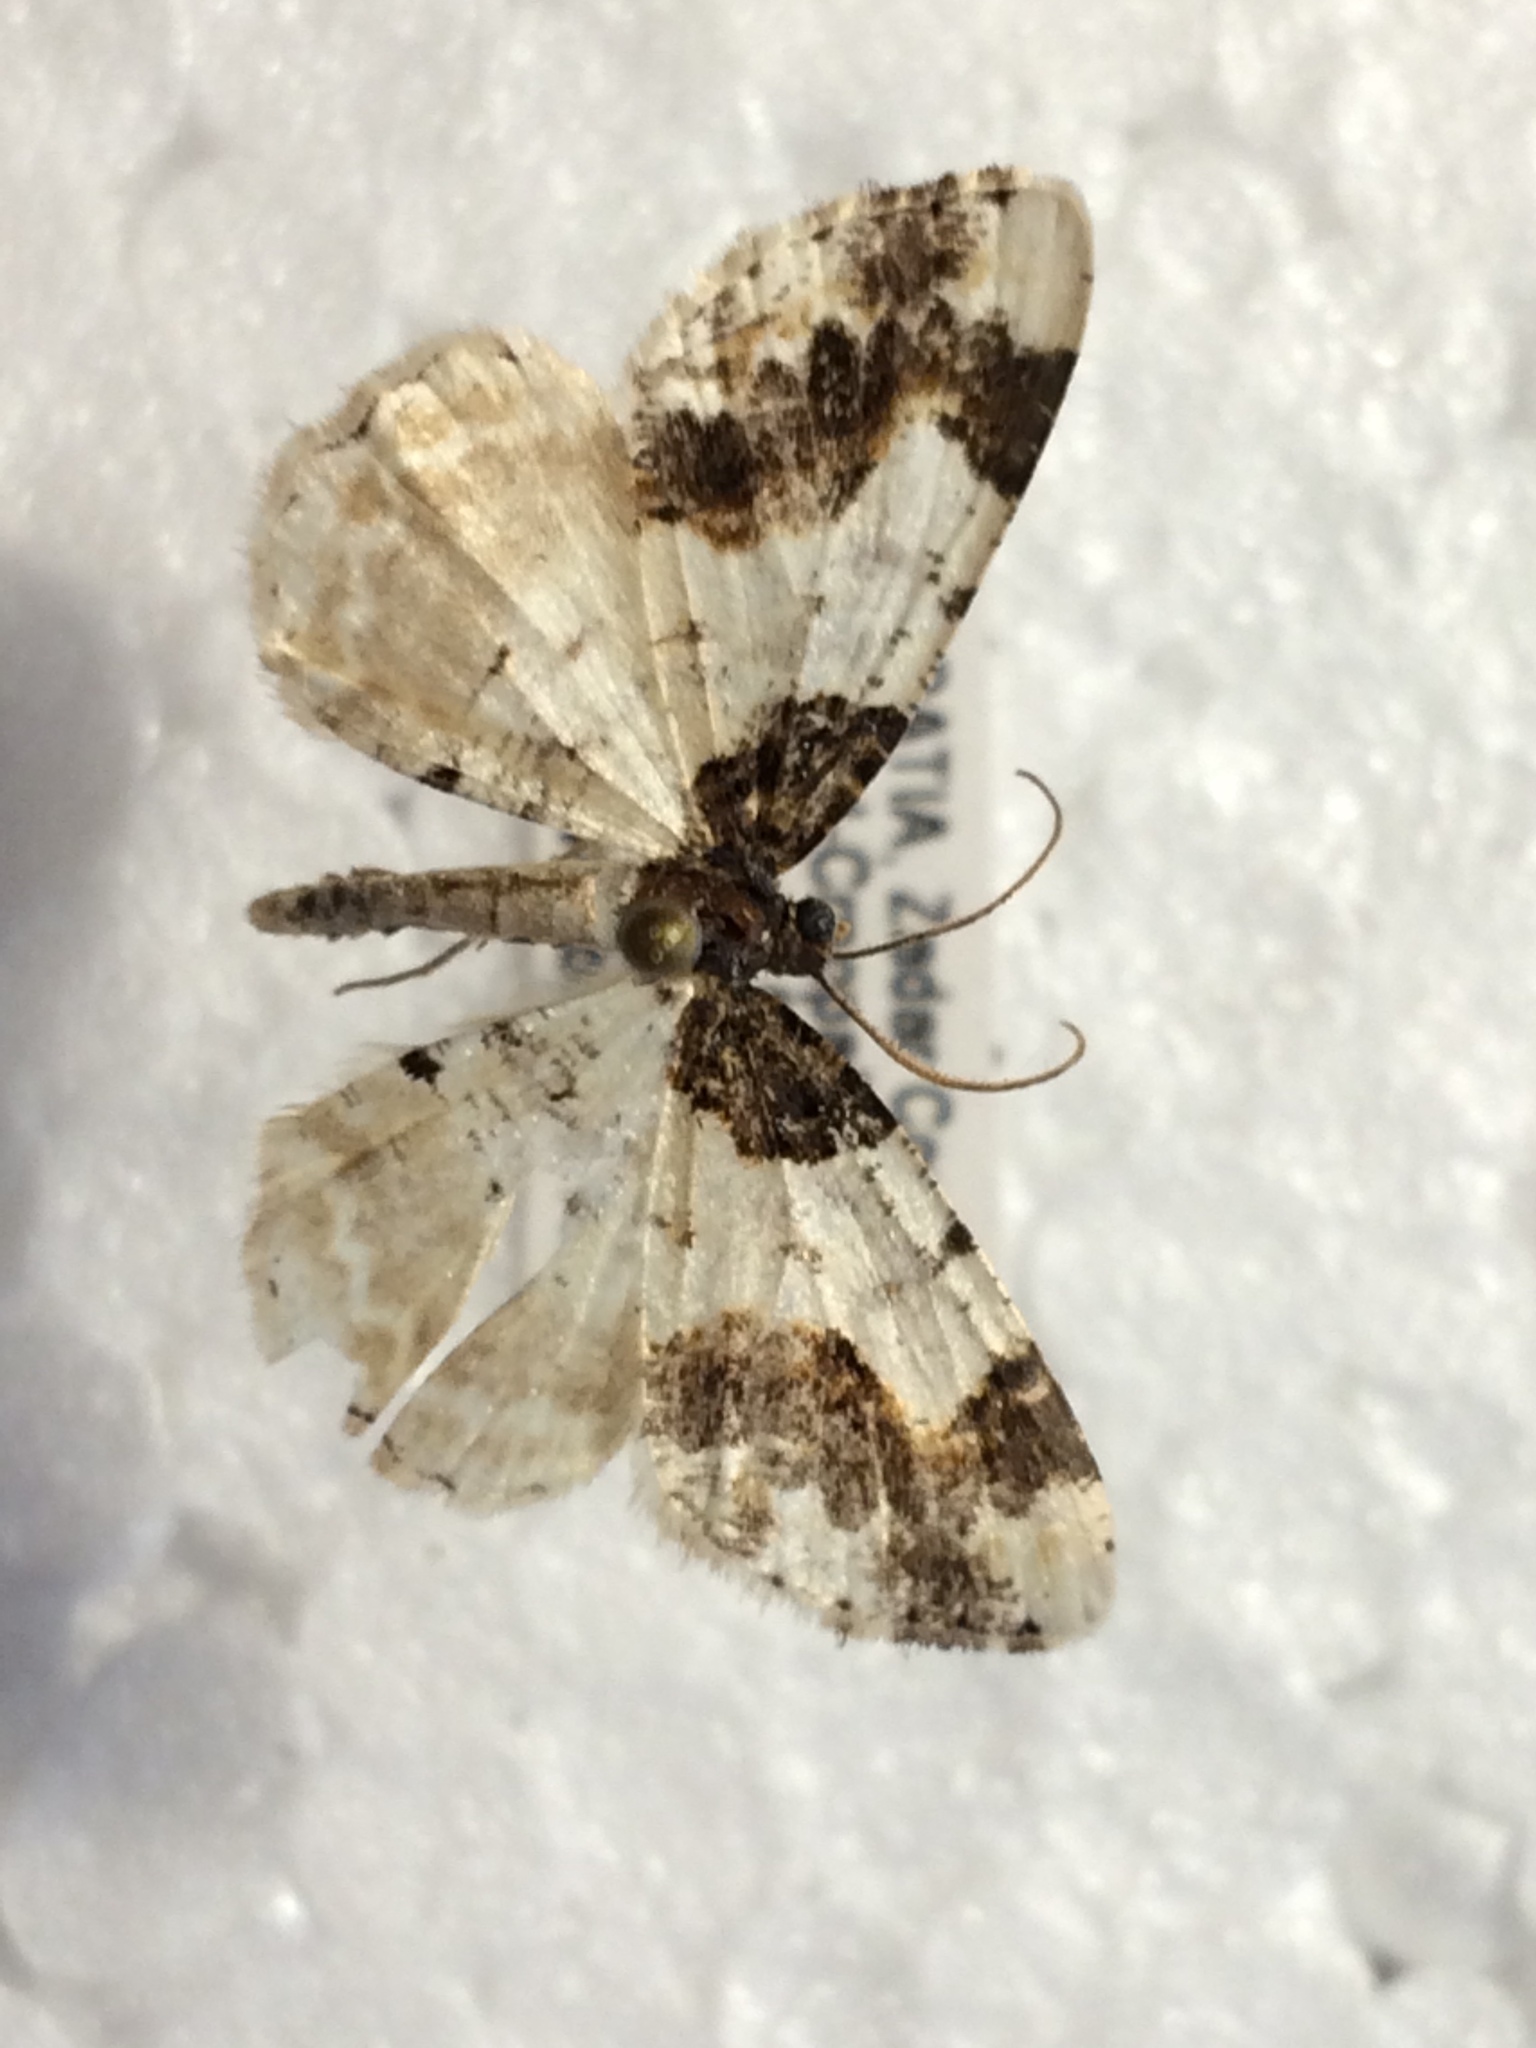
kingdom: Animalia
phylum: Arthropoda
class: Insecta
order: Lepidoptera
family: Geometridae
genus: Ligdia
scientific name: Ligdia adustata
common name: Scorched carpet
